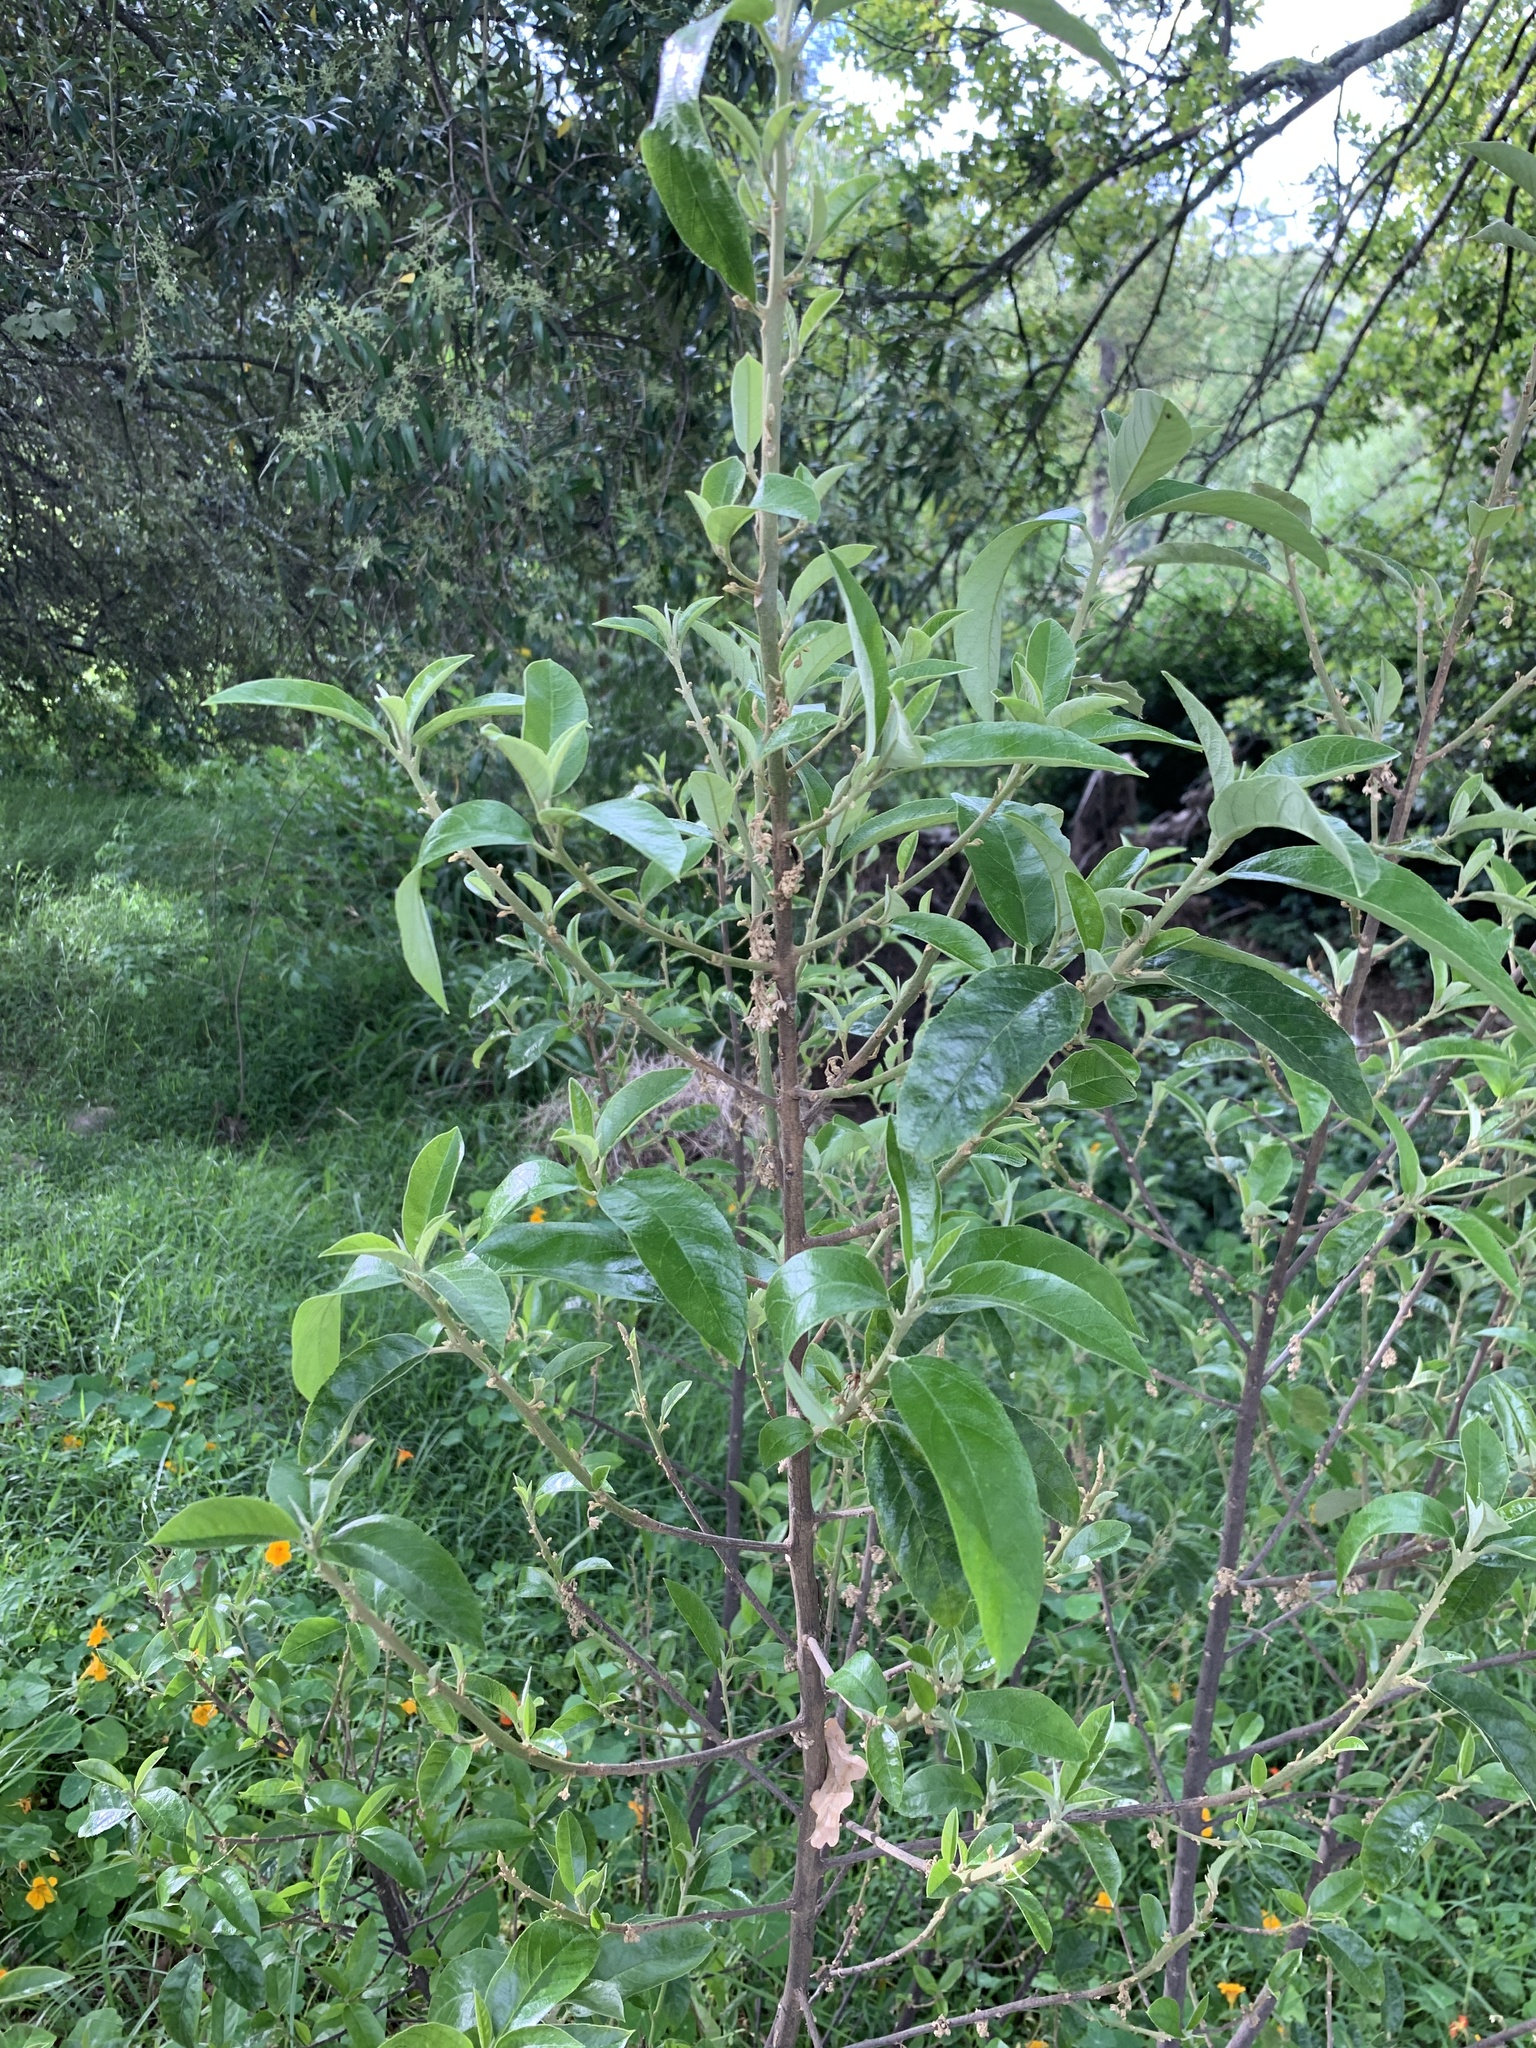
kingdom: Plantae
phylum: Tracheophyta
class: Magnoliopsida
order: Malpighiales
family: Achariaceae
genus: Kiggelaria
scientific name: Kiggelaria africana
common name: Wild peach
